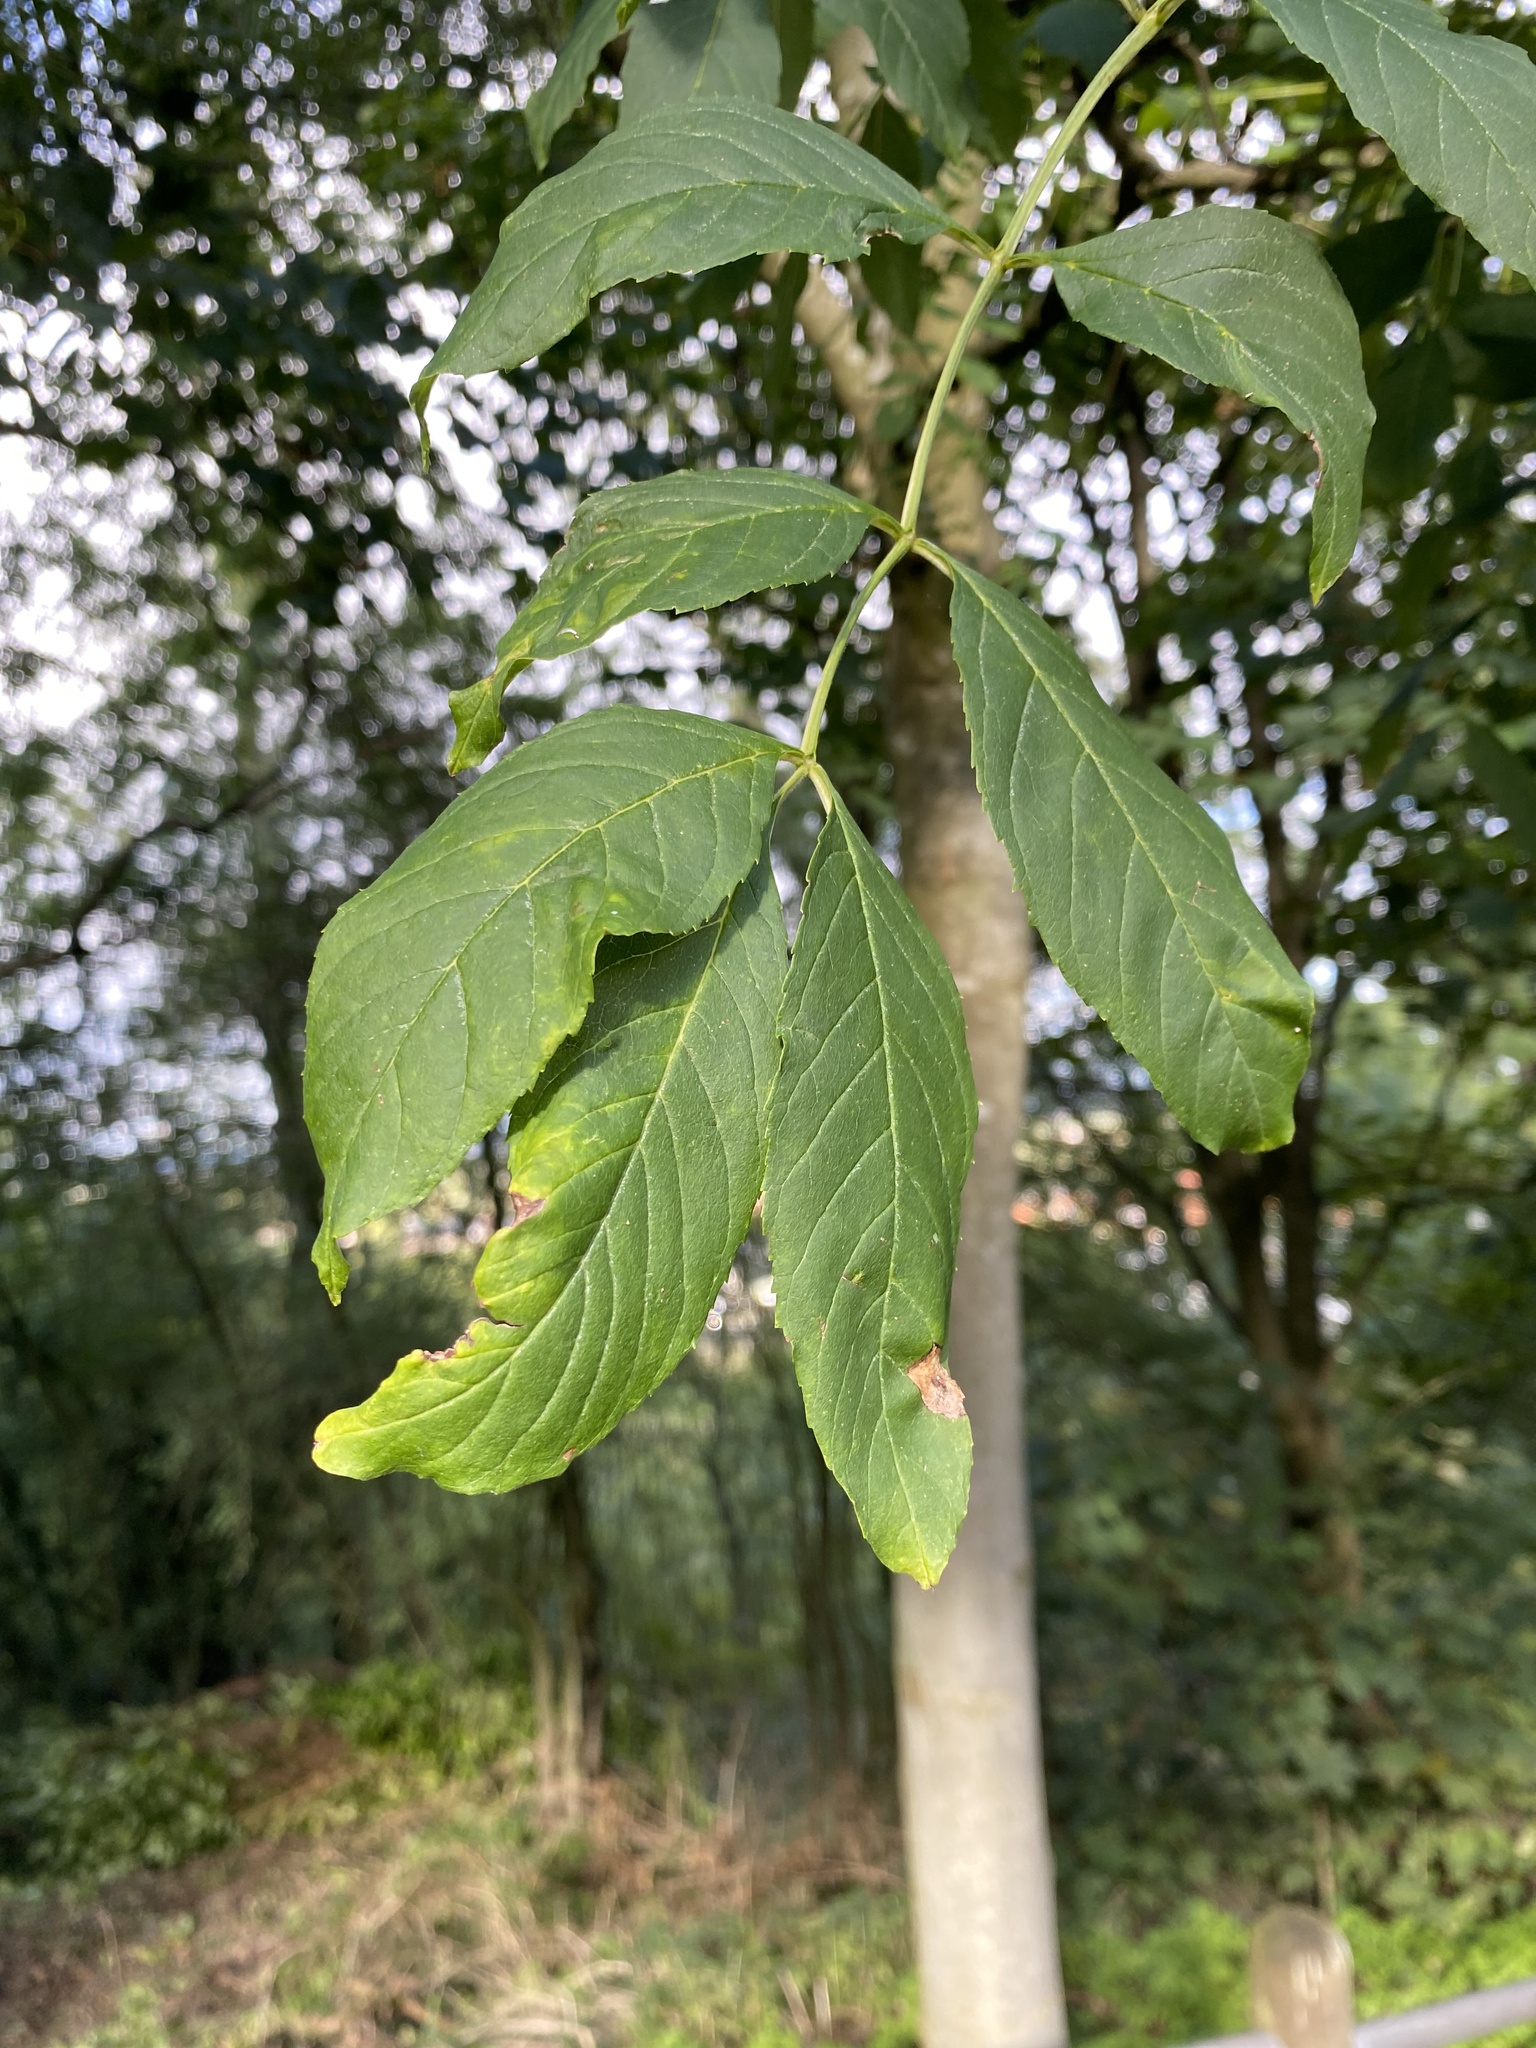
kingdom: Plantae
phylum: Tracheophyta
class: Magnoliopsida
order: Lamiales
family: Oleaceae
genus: Fraxinus
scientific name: Fraxinus excelsior
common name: European ash
